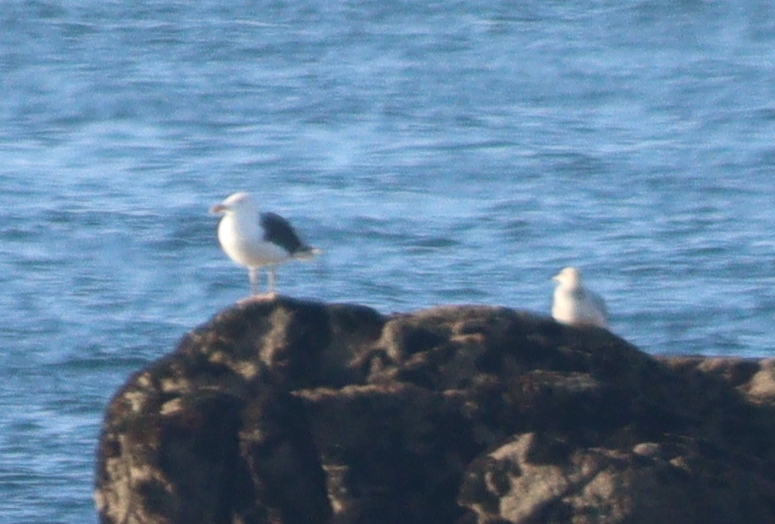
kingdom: Animalia
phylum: Chordata
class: Aves
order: Charadriiformes
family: Laridae
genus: Larus
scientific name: Larus marinus
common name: Great black-backed gull
